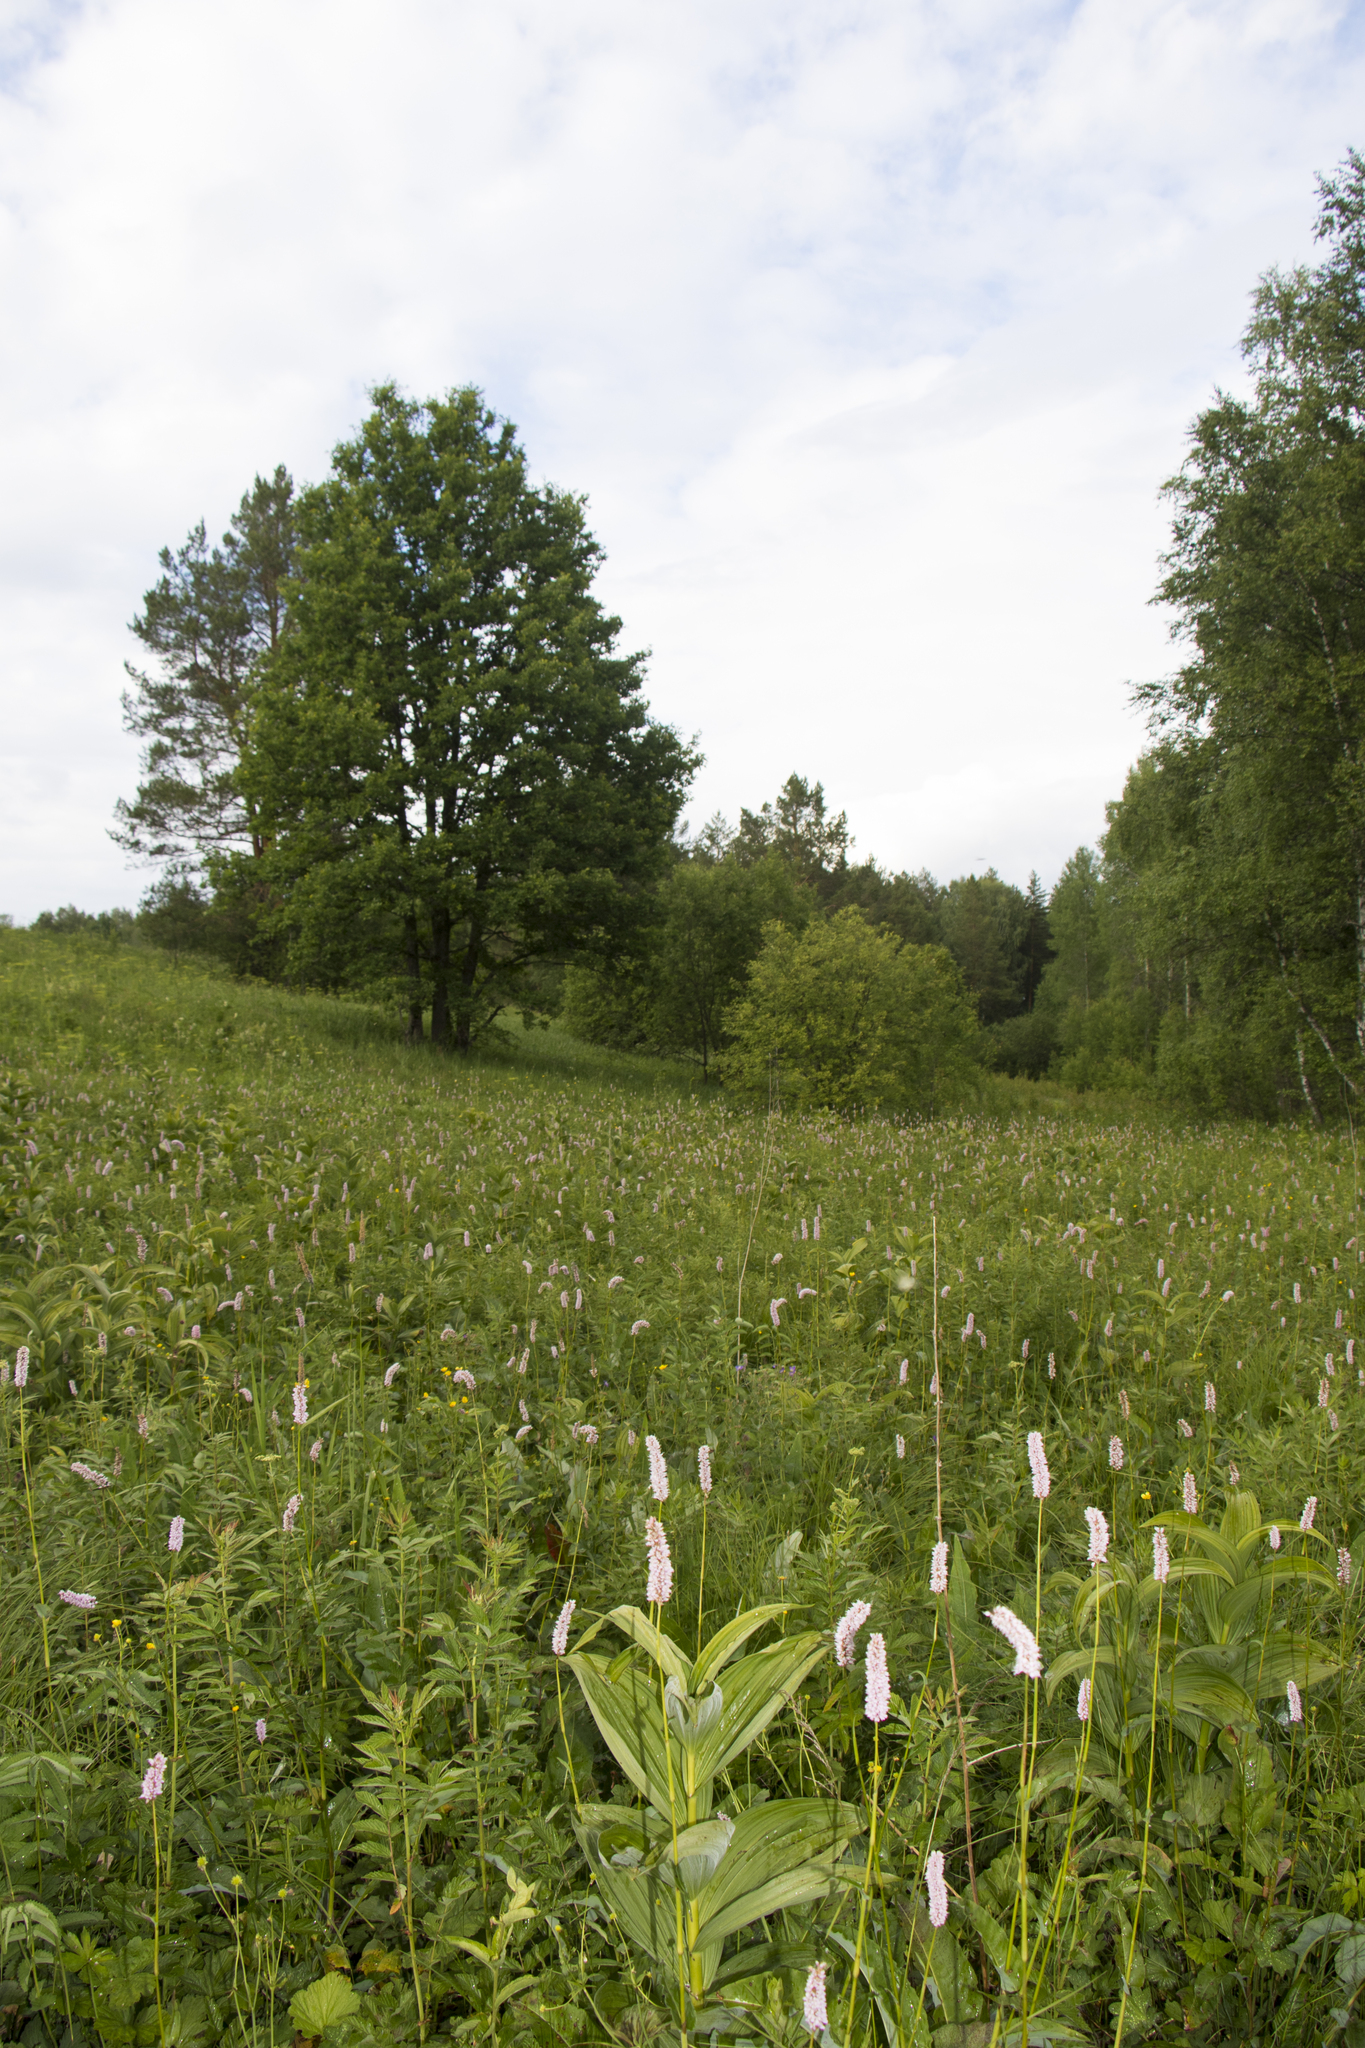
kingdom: Plantae
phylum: Tracheophyta
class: Magnoliopsida
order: Caryophyllales
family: Polygonaceae
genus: Bistorta
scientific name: Bistorta officinalis
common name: Common bistort
